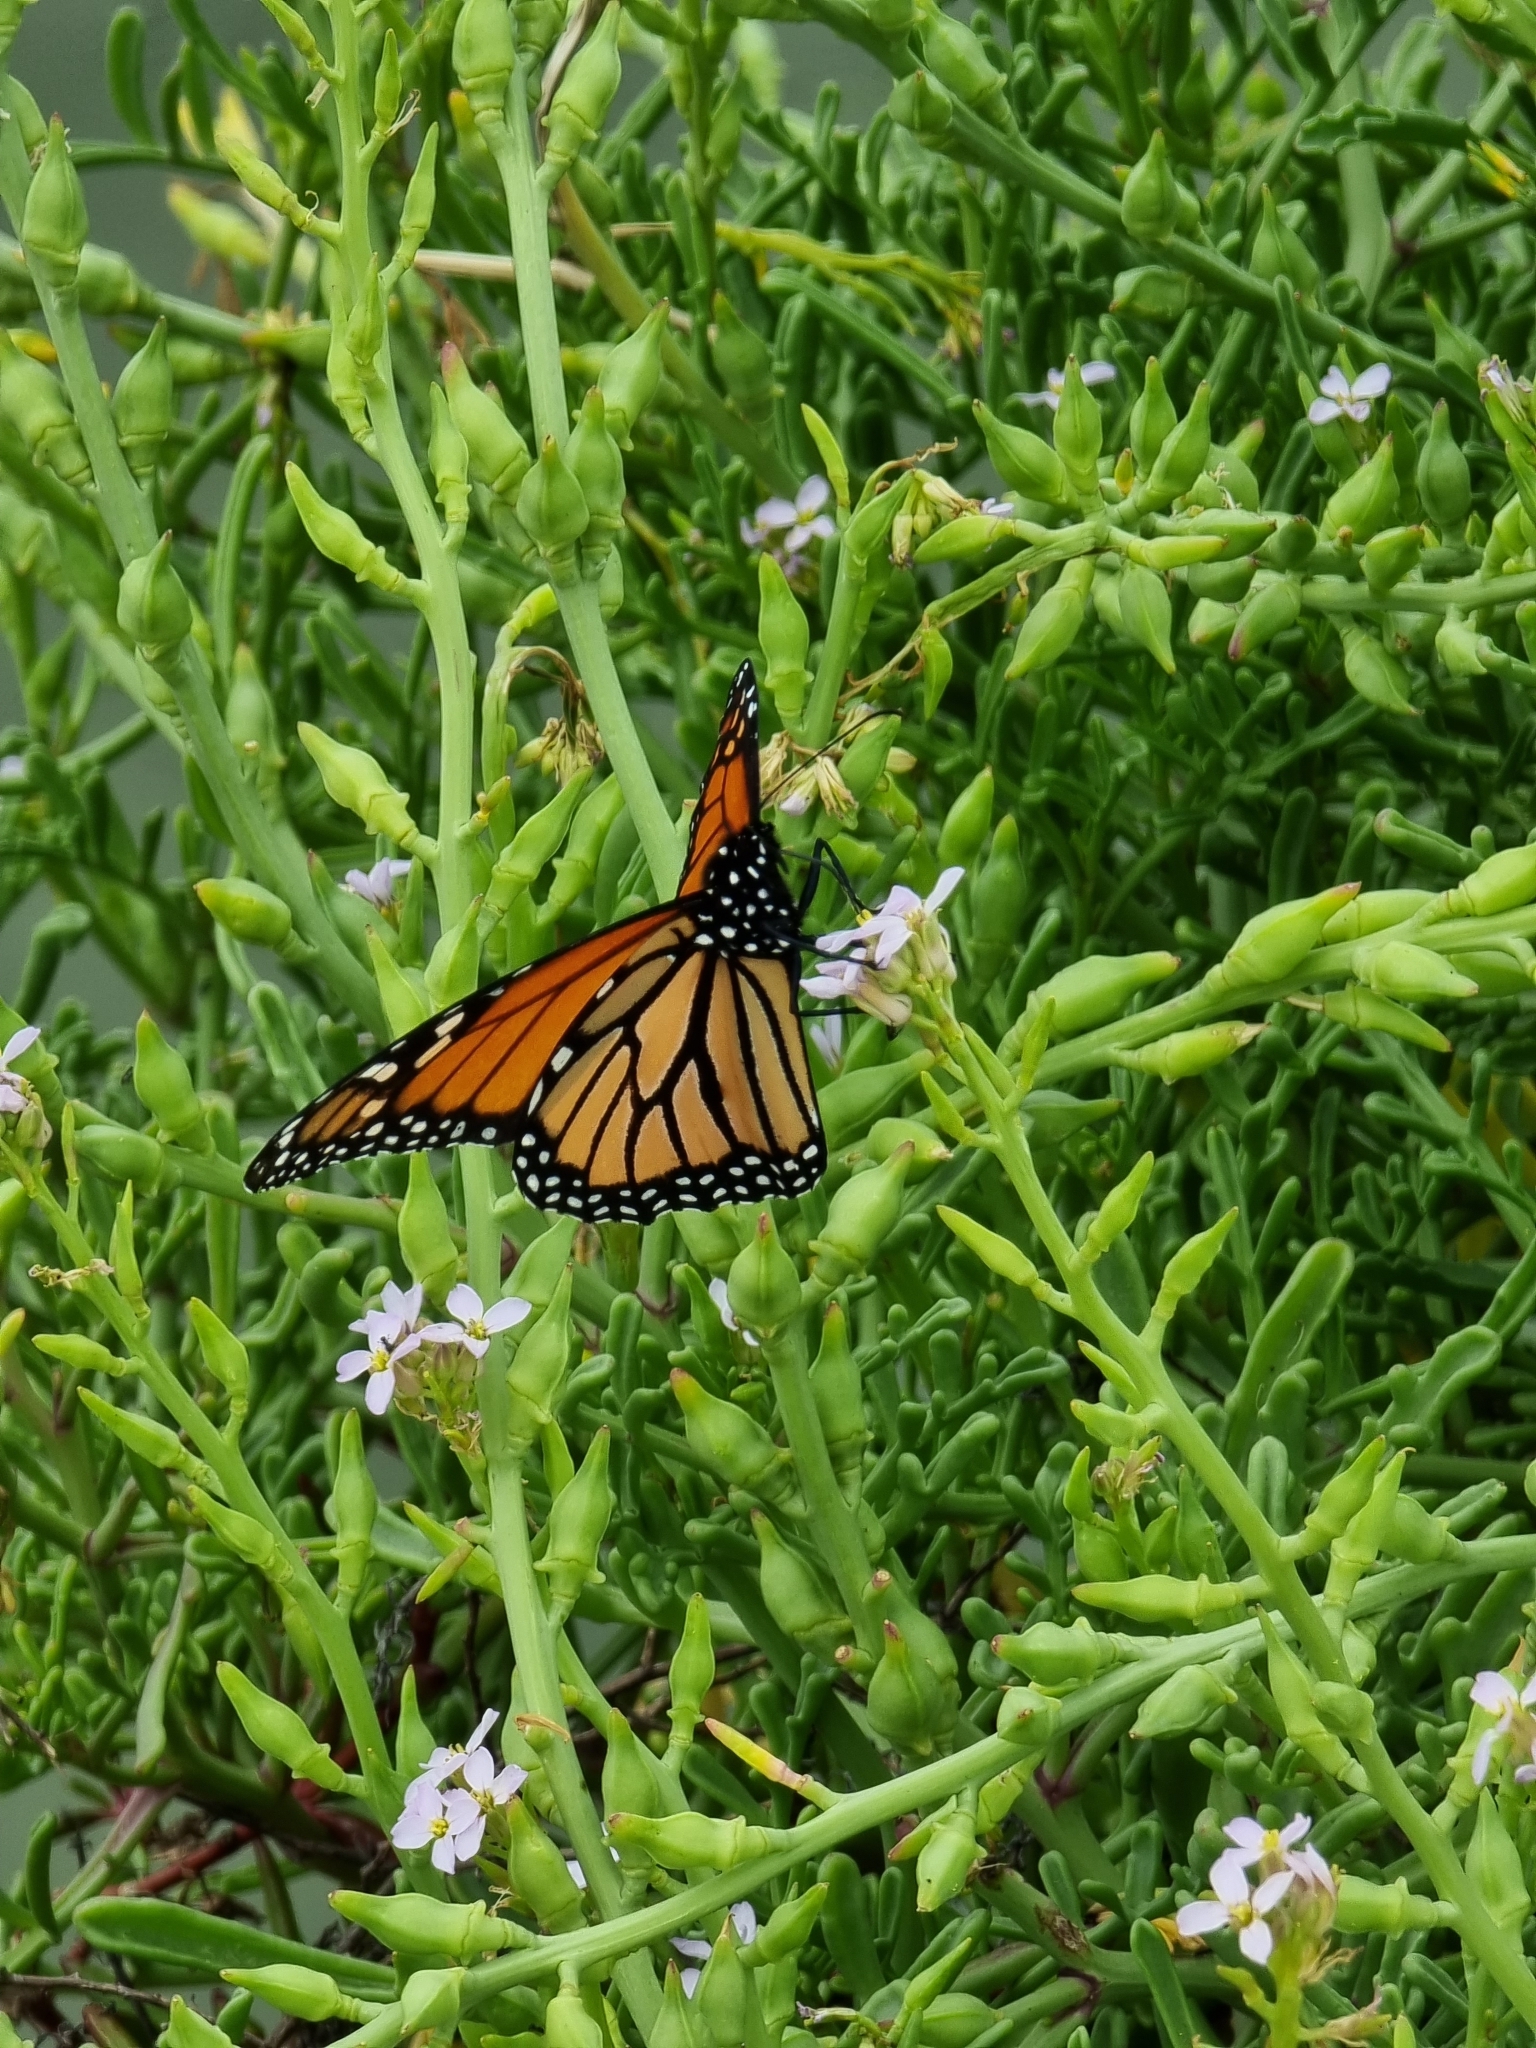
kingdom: Animalia
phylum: Arthropoda
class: Insecta
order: Lepidoptera
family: Nymphalidae
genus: Danaus
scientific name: Danaus plexippus
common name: Monarch
